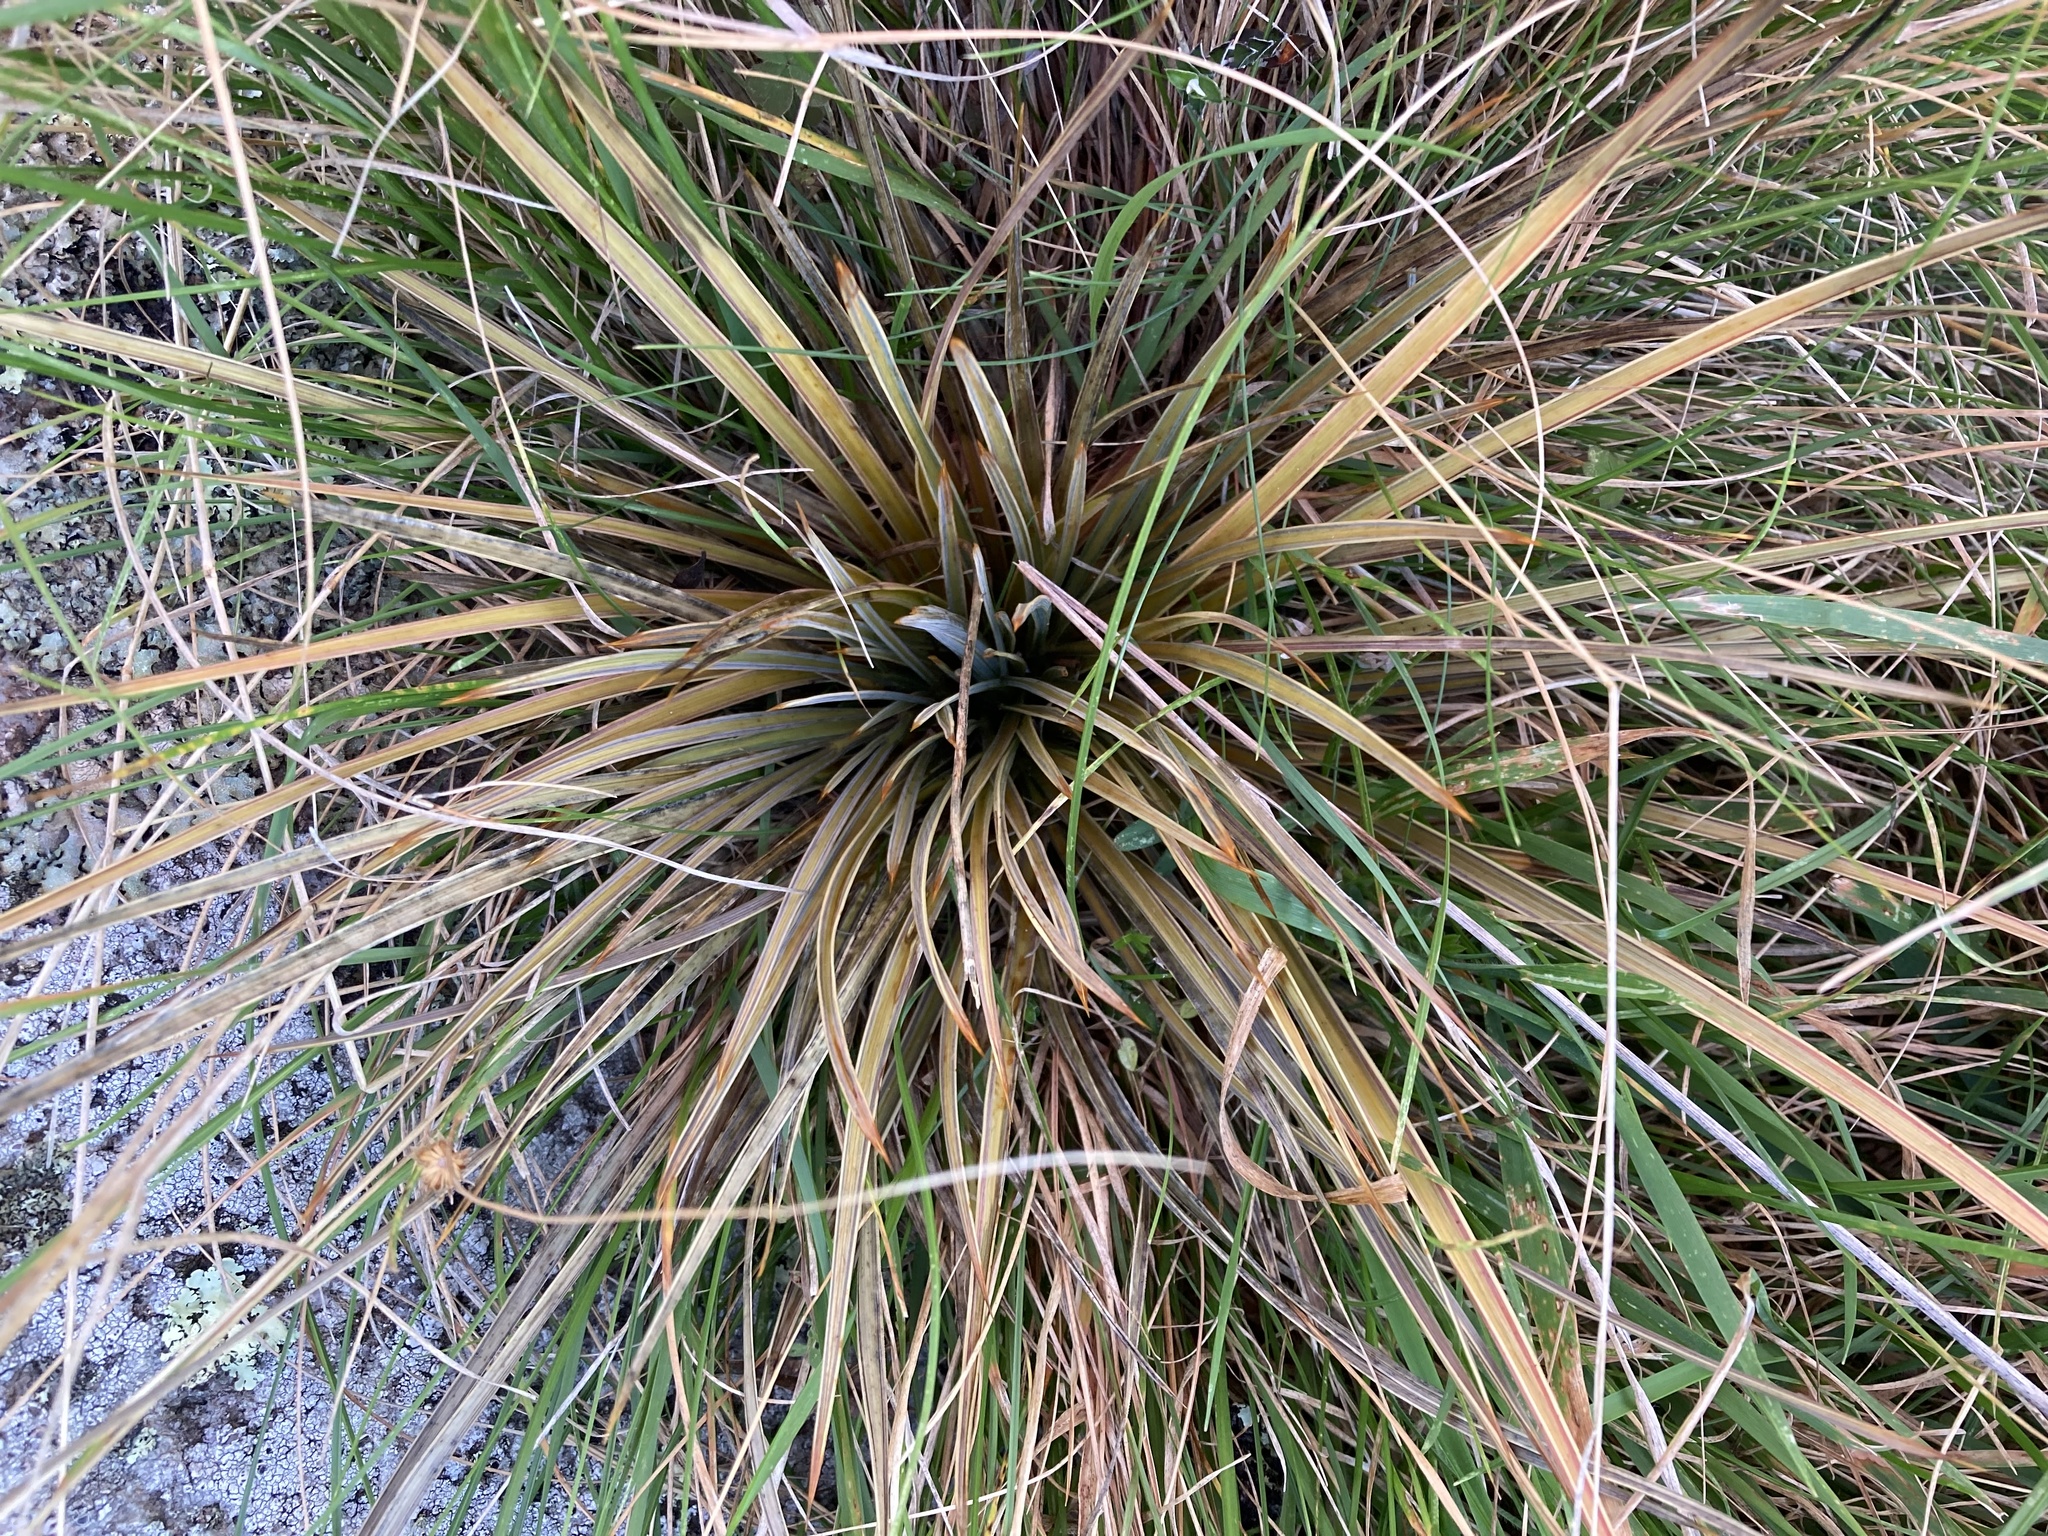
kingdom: Plantae
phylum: Tracheophyta
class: Magnoliopsida
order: Apiales
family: Apiaceae
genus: Aciphylla
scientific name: Aciphylla subflabellata
